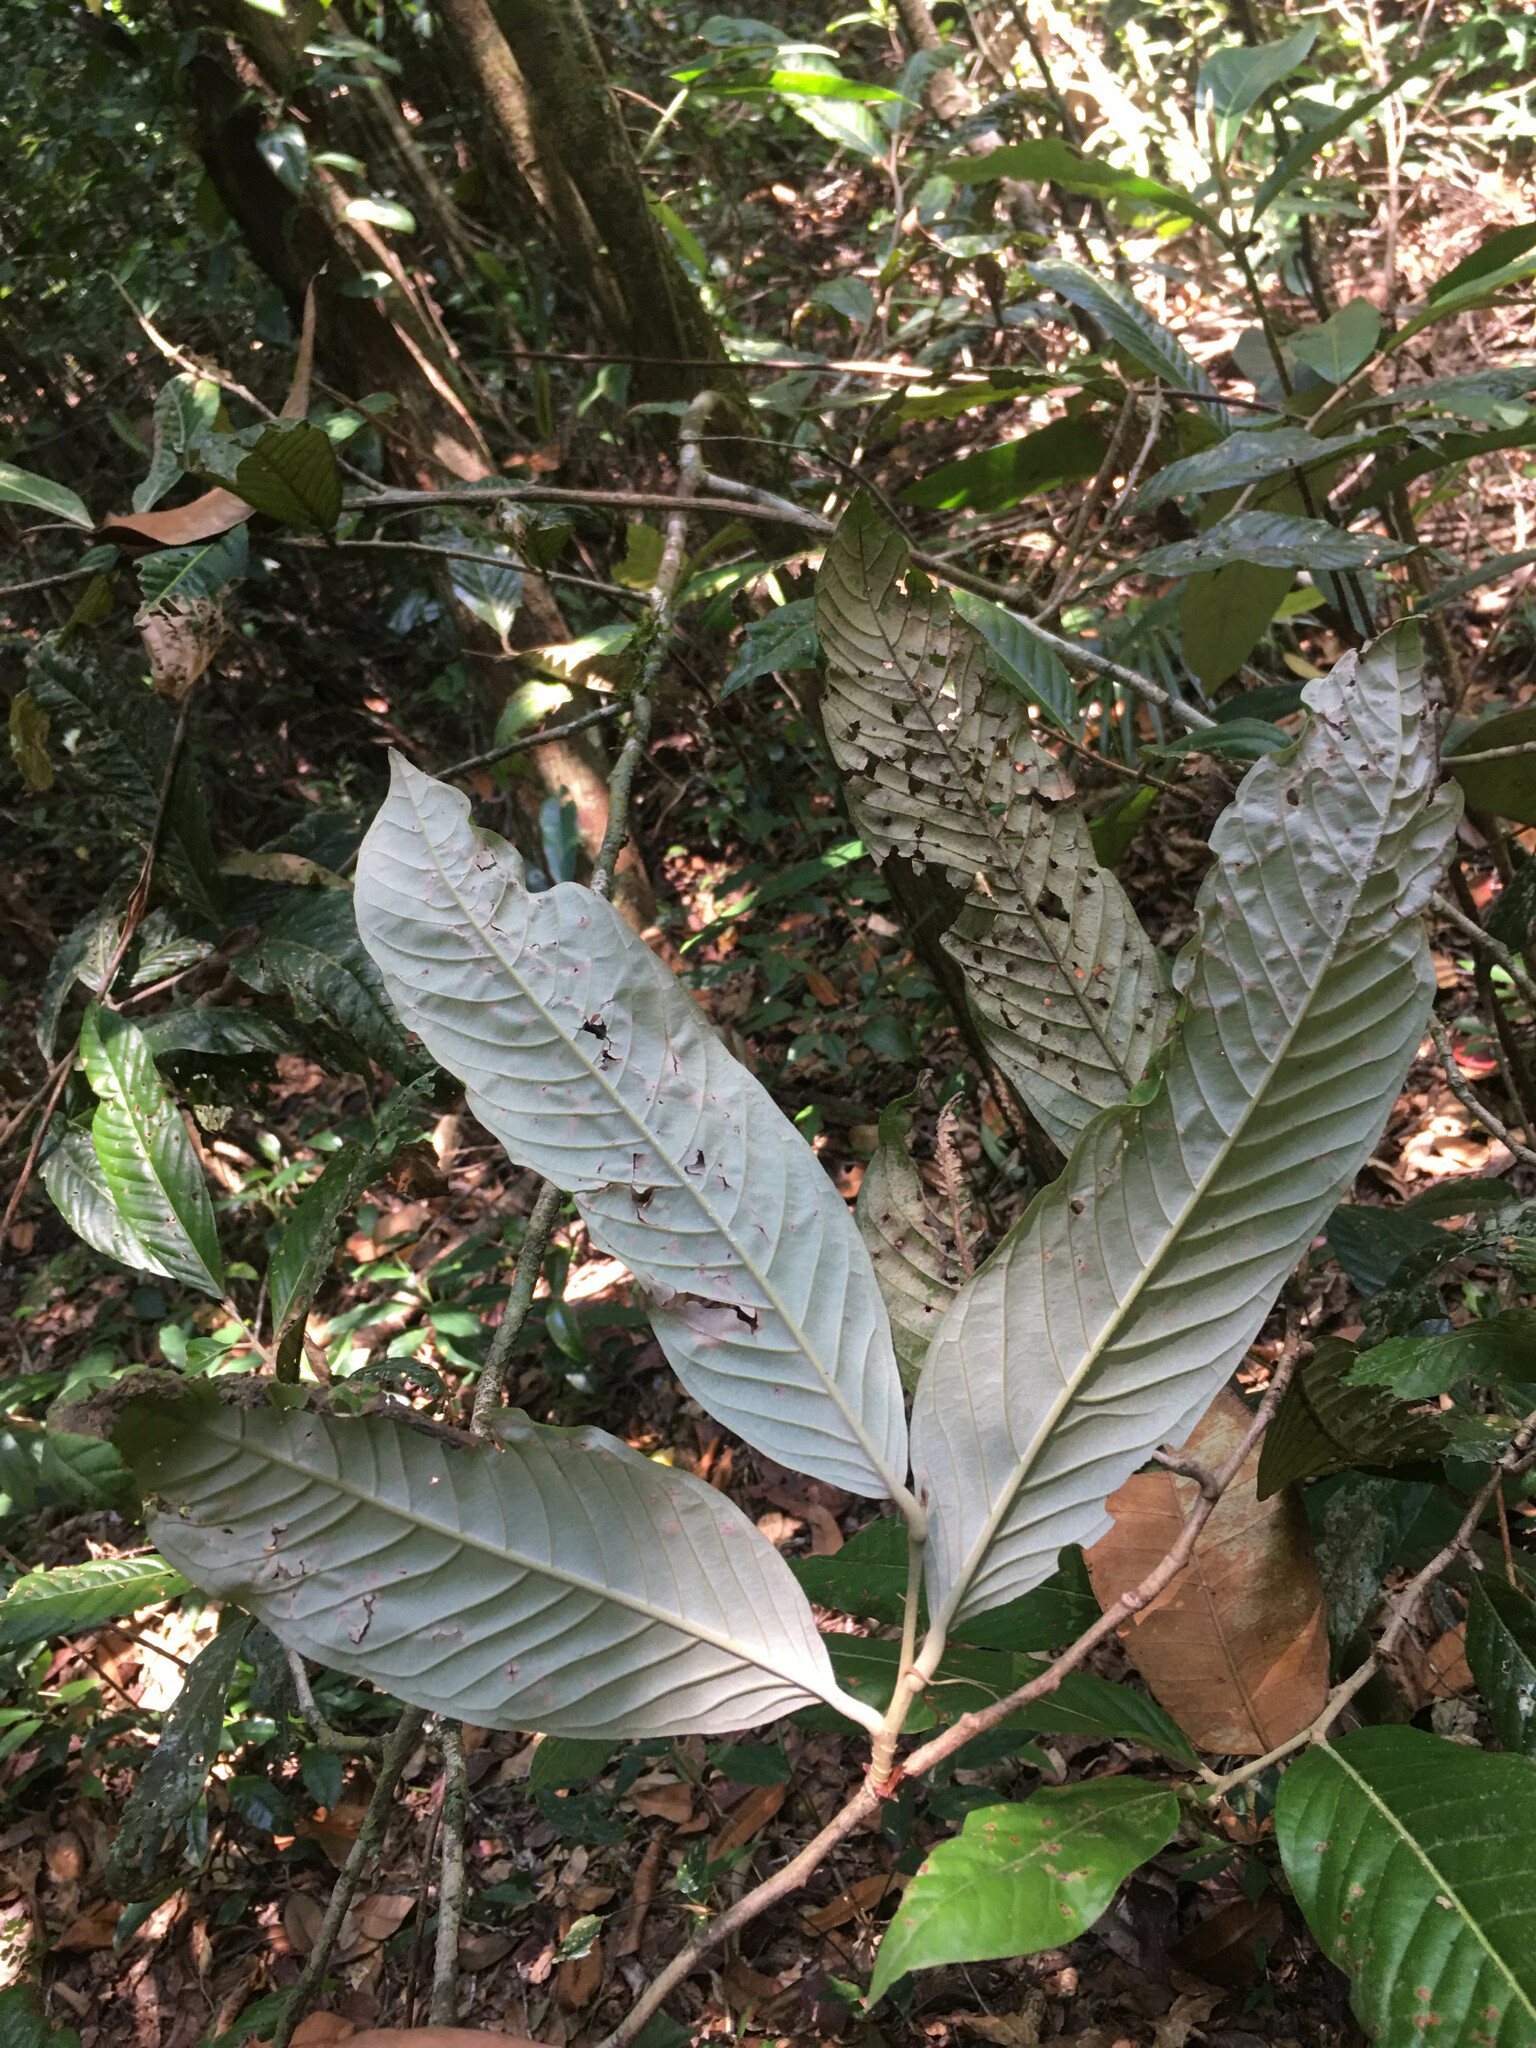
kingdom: Plantae
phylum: Tracheophyta
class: Magnoliopsida
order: Malpighiales
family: Chrysobalanaceae
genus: Couepia
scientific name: Couepia impressa
